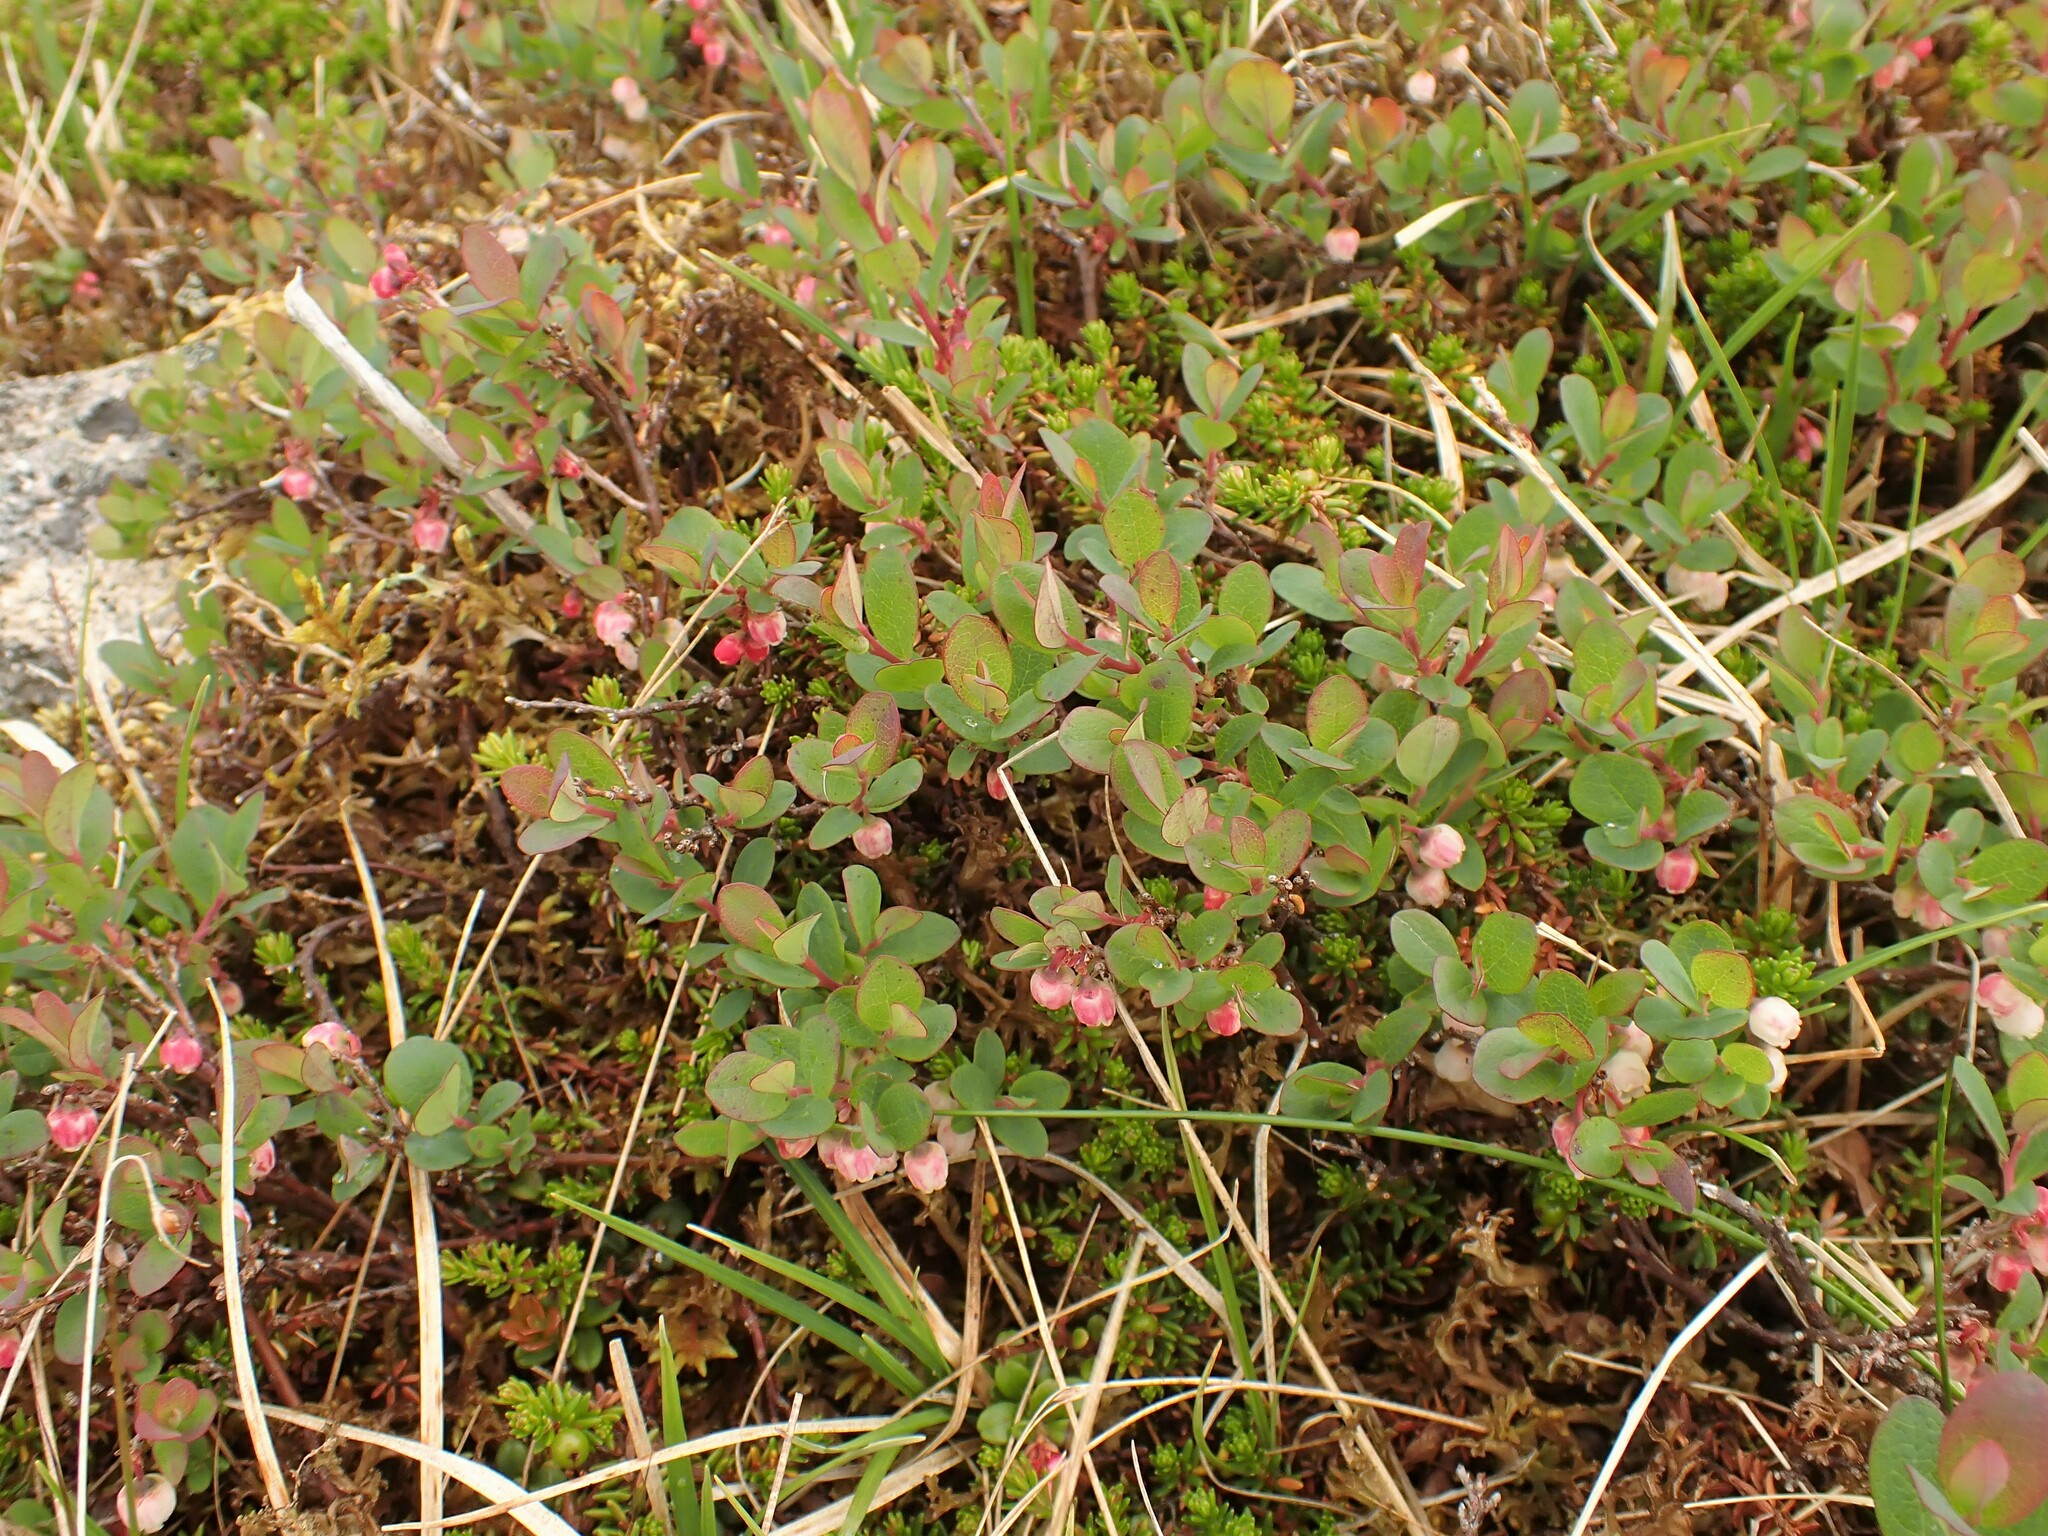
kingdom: Plantae
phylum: Tracheophyta
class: Magnoliopsida
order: Ericales
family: Ericaceae
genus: Vaccinium
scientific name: Vaccinium uliginosum
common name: Bog bilberry
